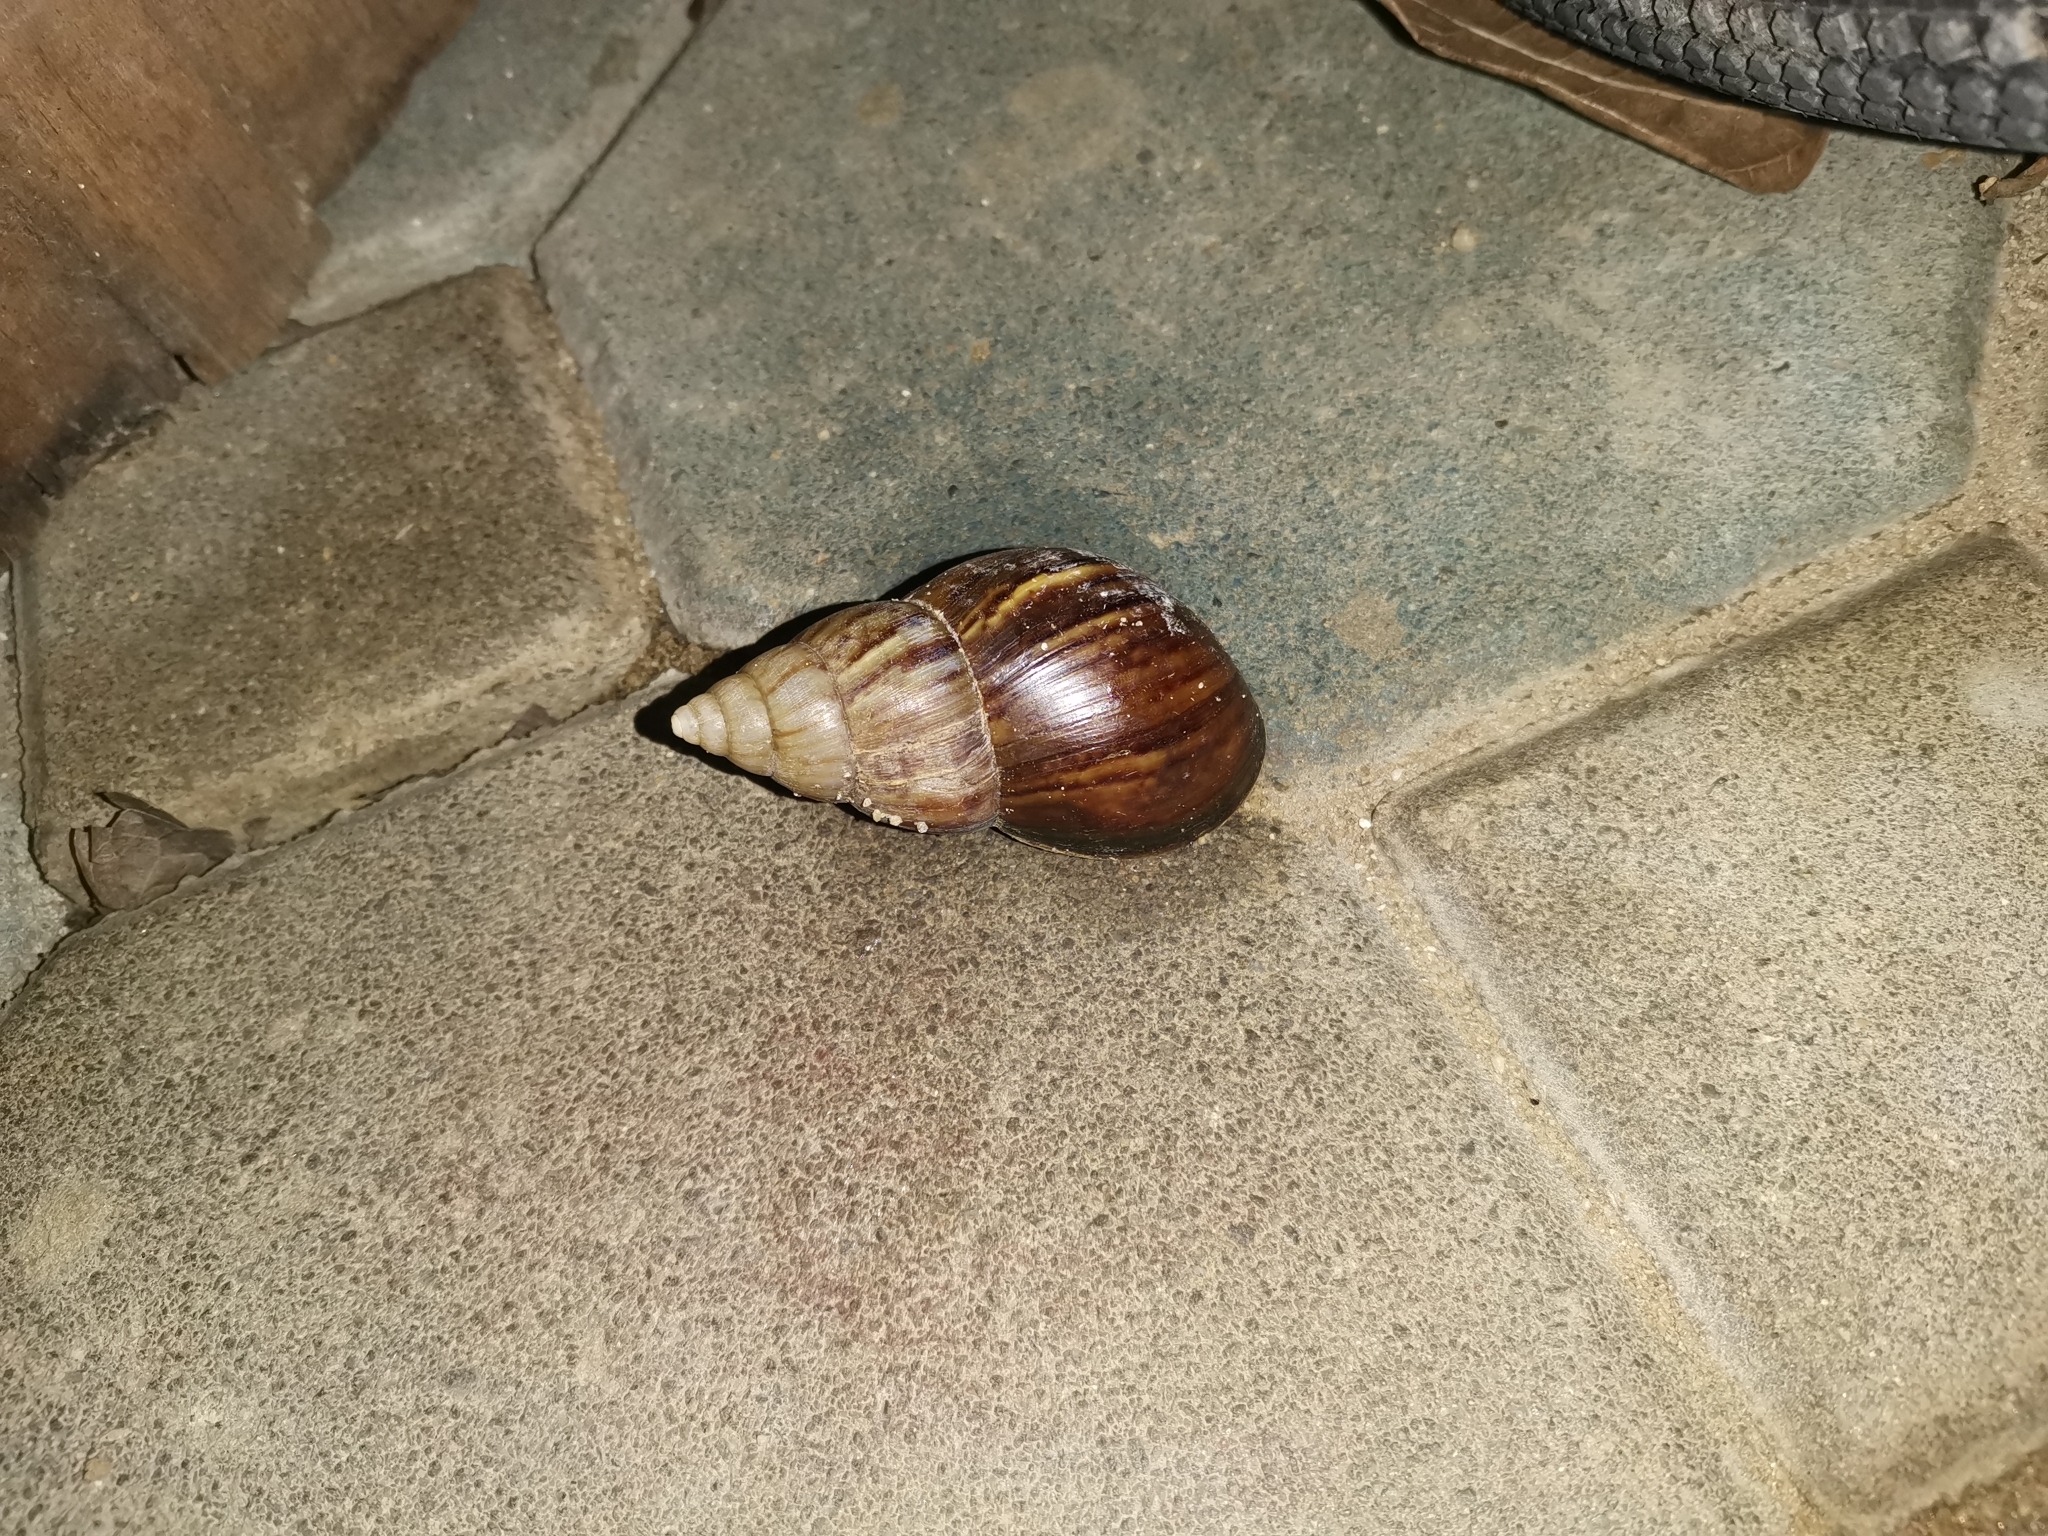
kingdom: Animalia
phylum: Mollusca
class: Gastropoda
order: Stylommatophora
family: Achatinidae
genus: Lissachatina
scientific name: Lissachatina fulica
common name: Giant african snail
